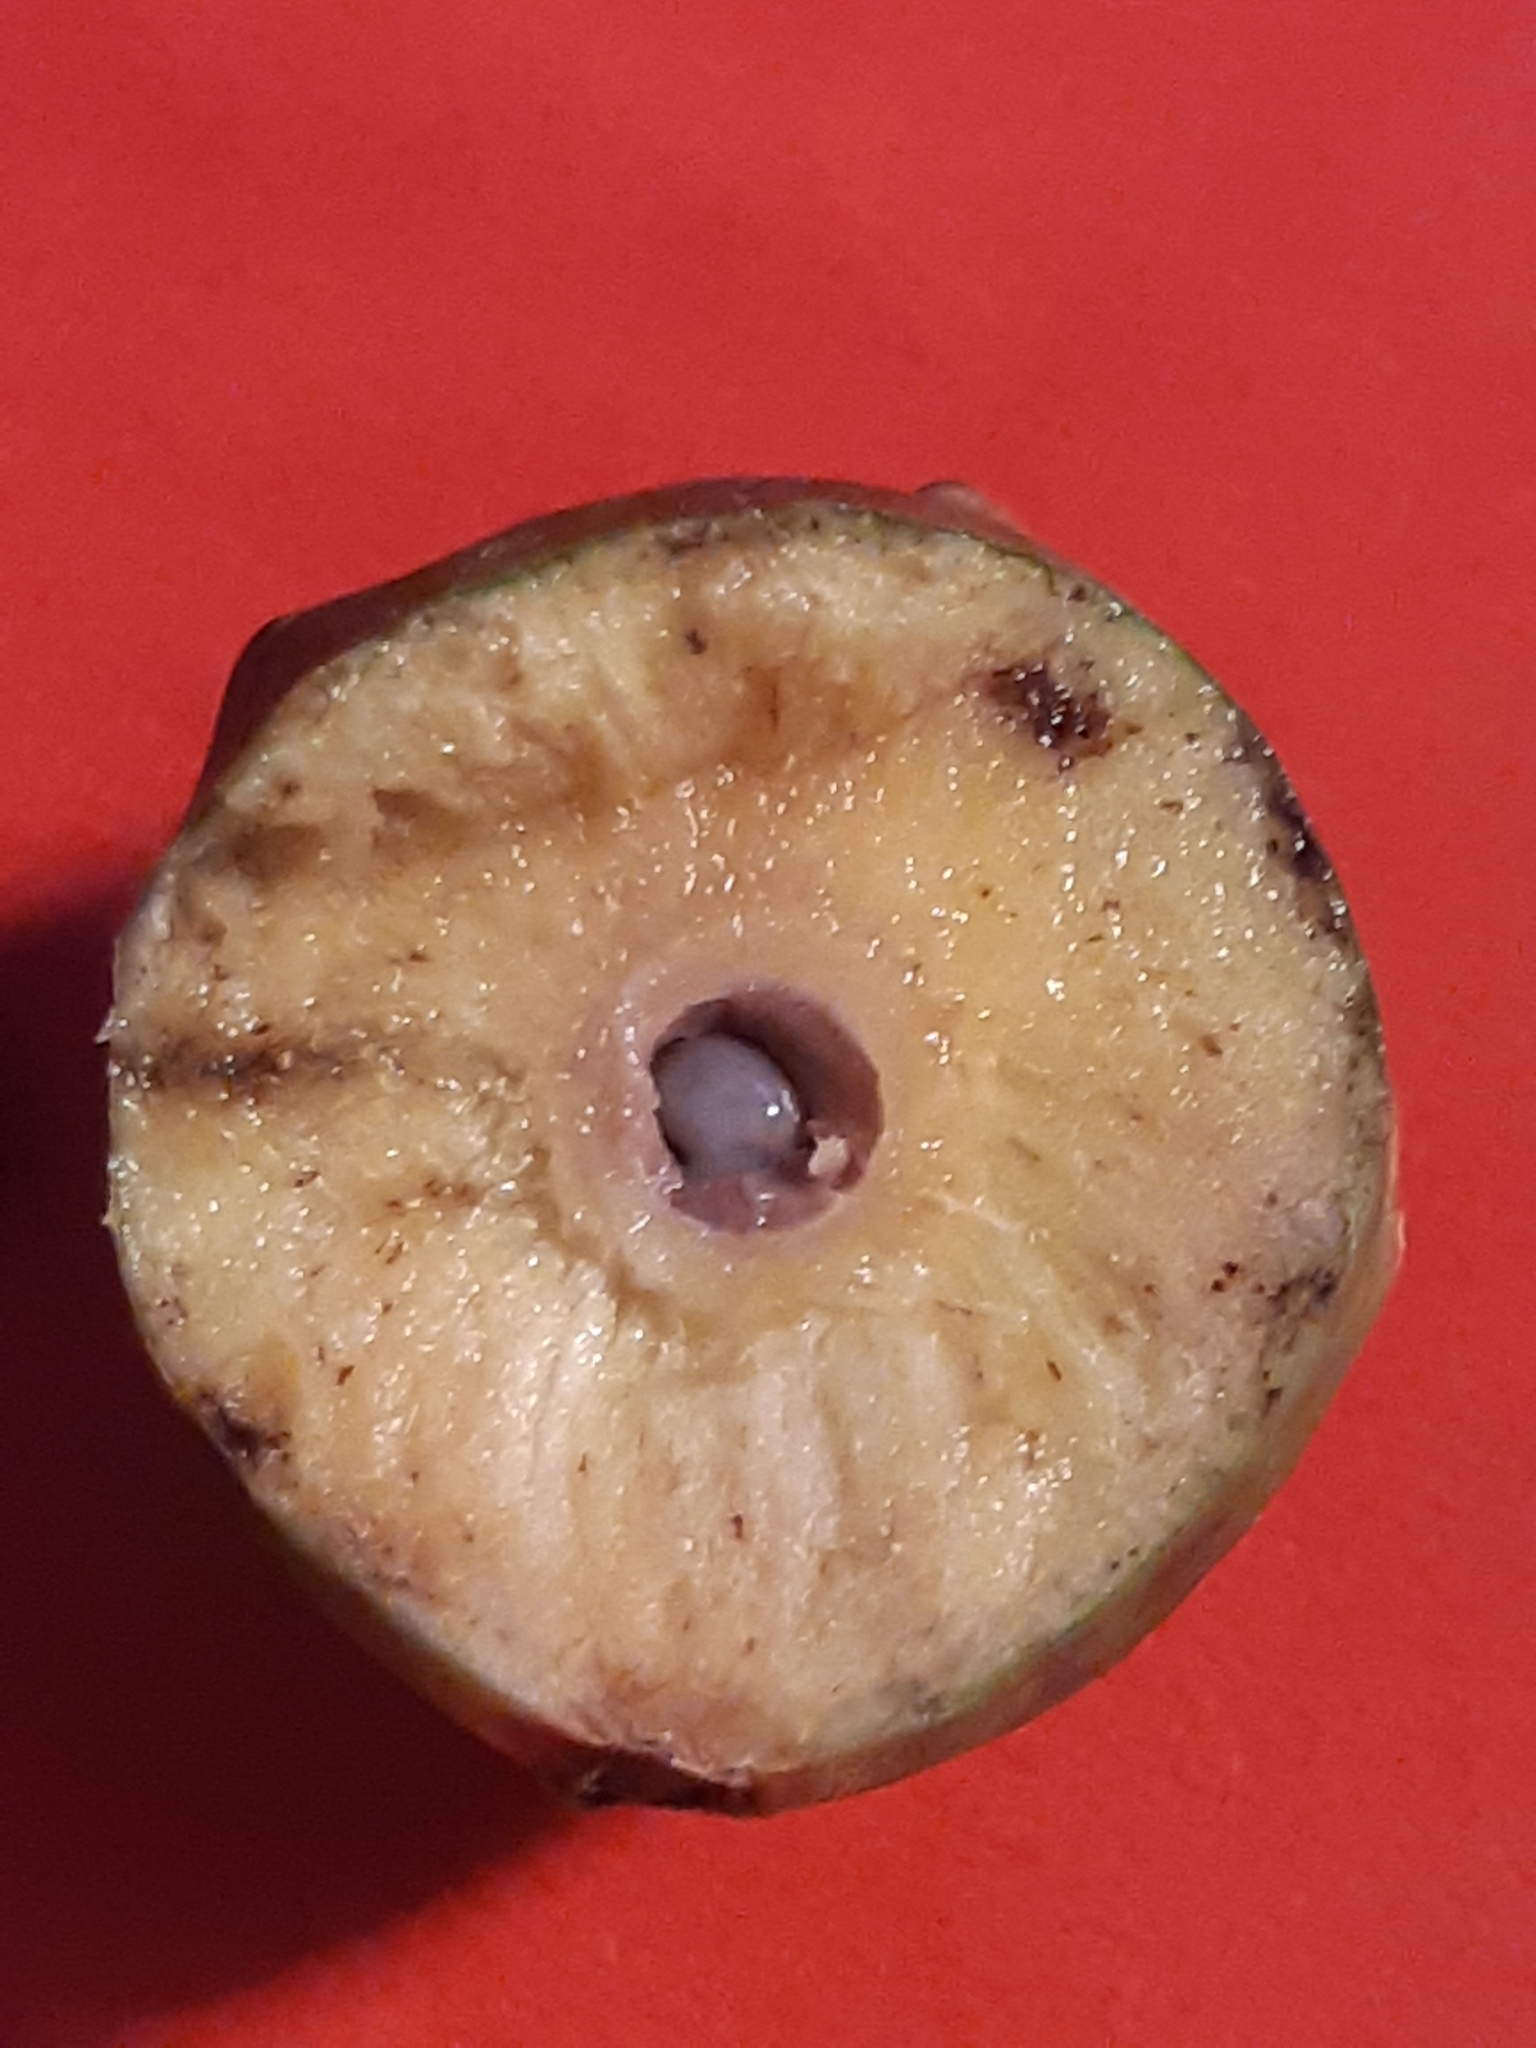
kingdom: Animalia
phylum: Arthropoda
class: Insecta
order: Hymenoptera
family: Cynipidae
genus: Andricus
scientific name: Andricus infectorius
